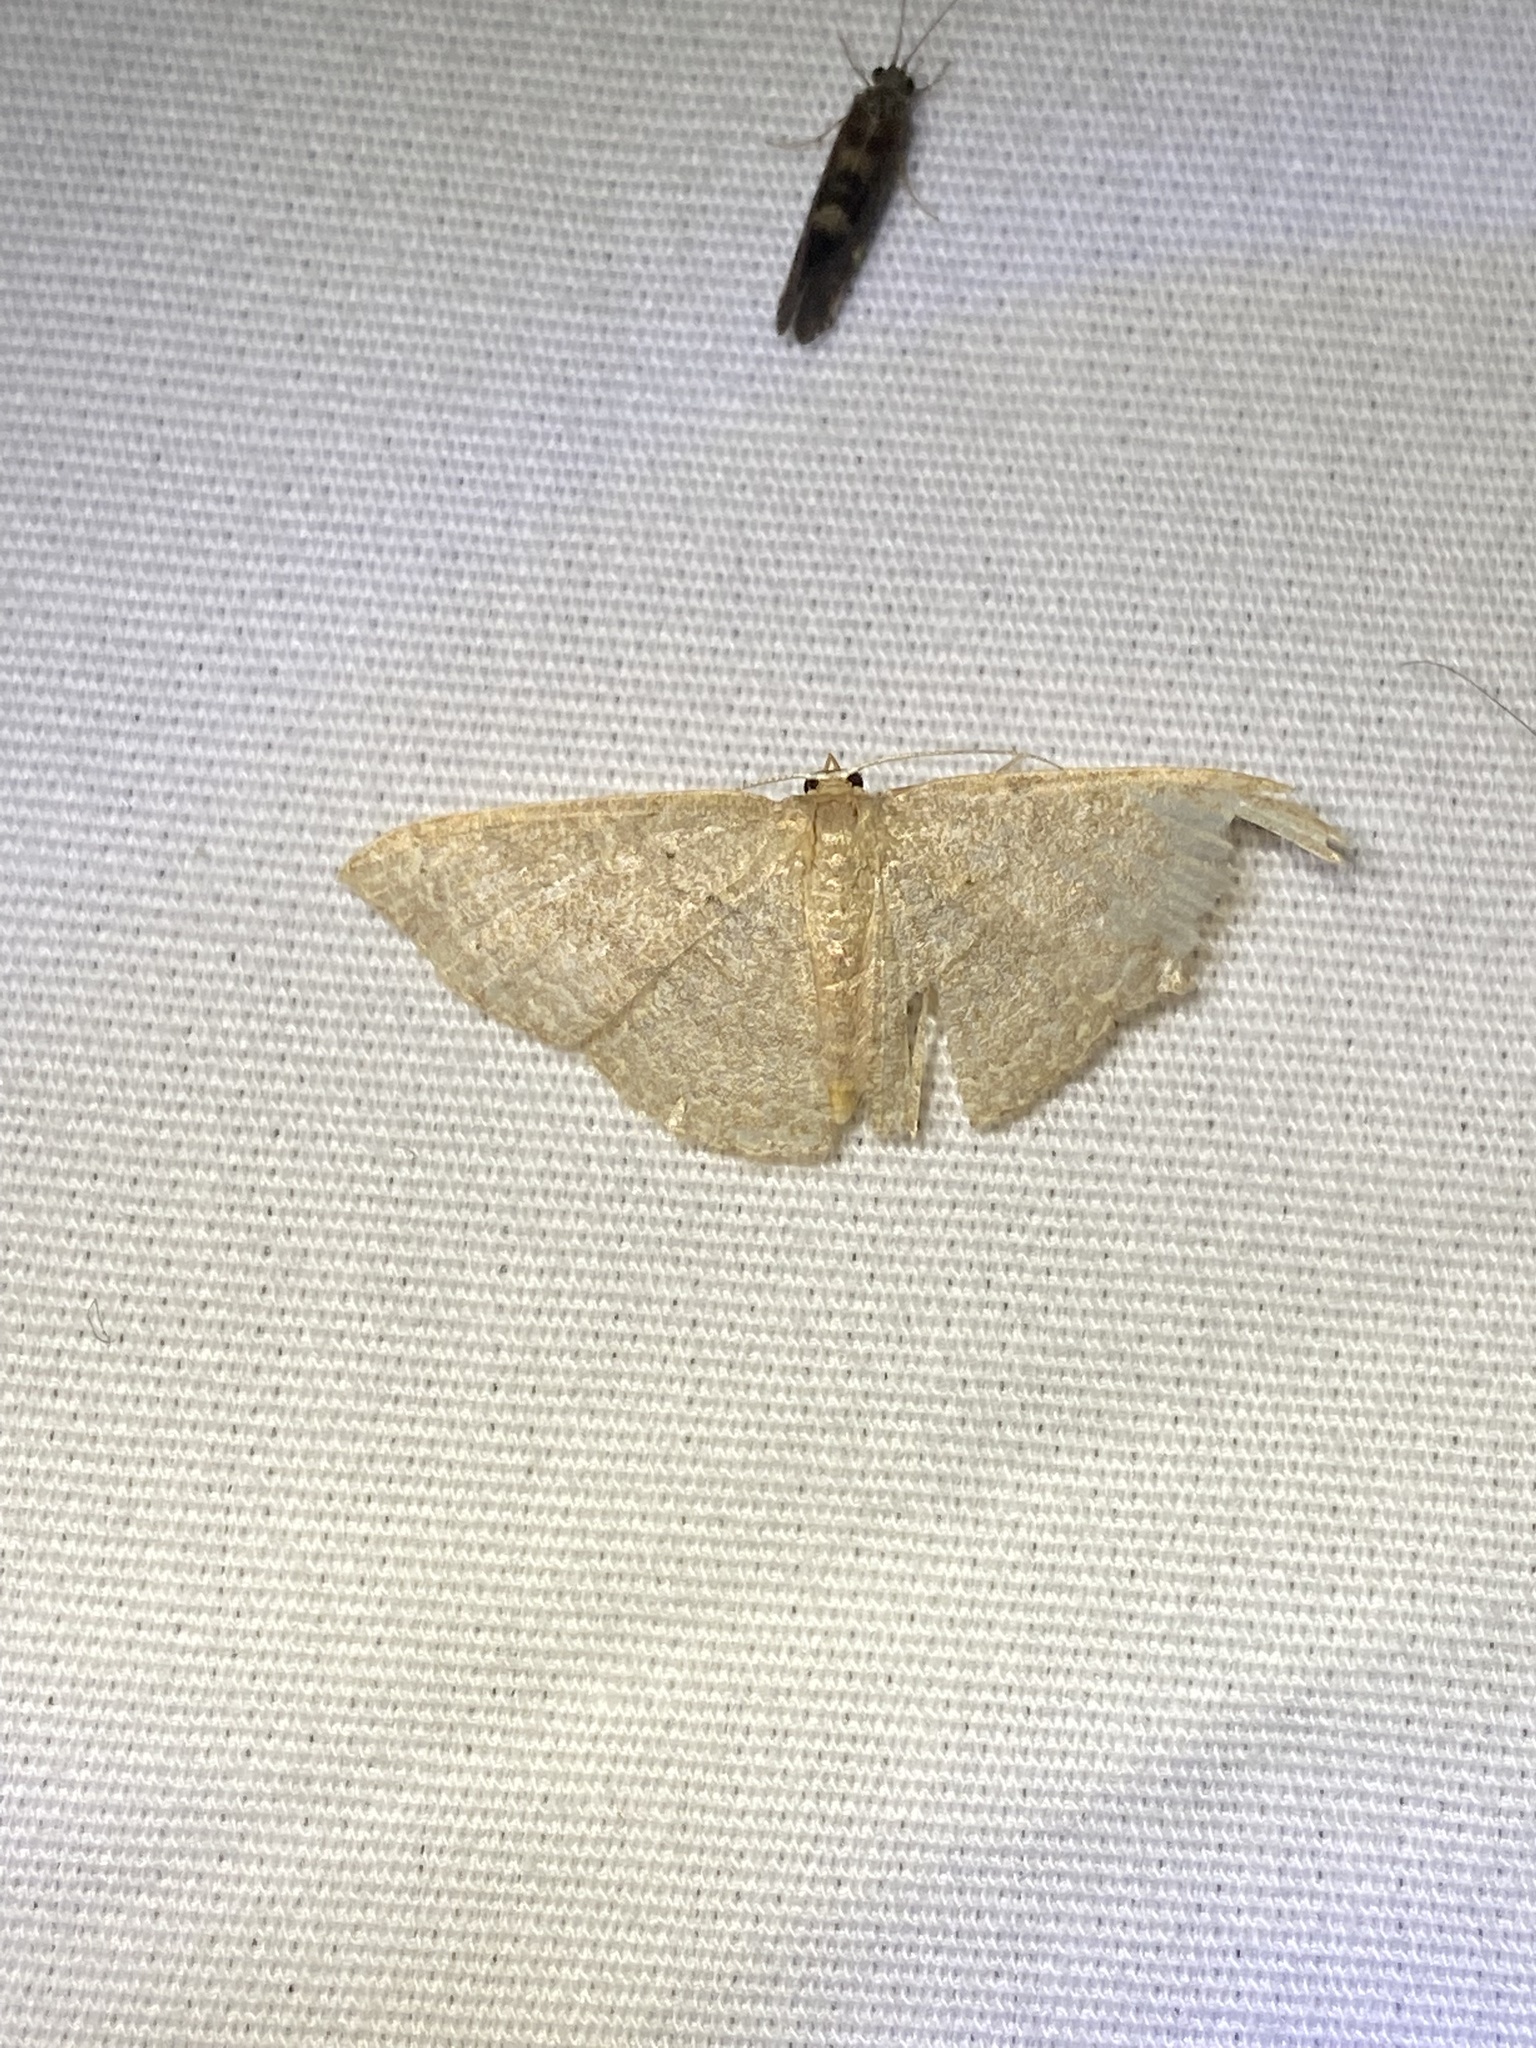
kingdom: Animalia
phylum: Arthropoda
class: Insecta
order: Lepidoptera
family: Geometridae
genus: Pleuroprucha
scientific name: Pleuroprucha insulsaria
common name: Common tan wave
